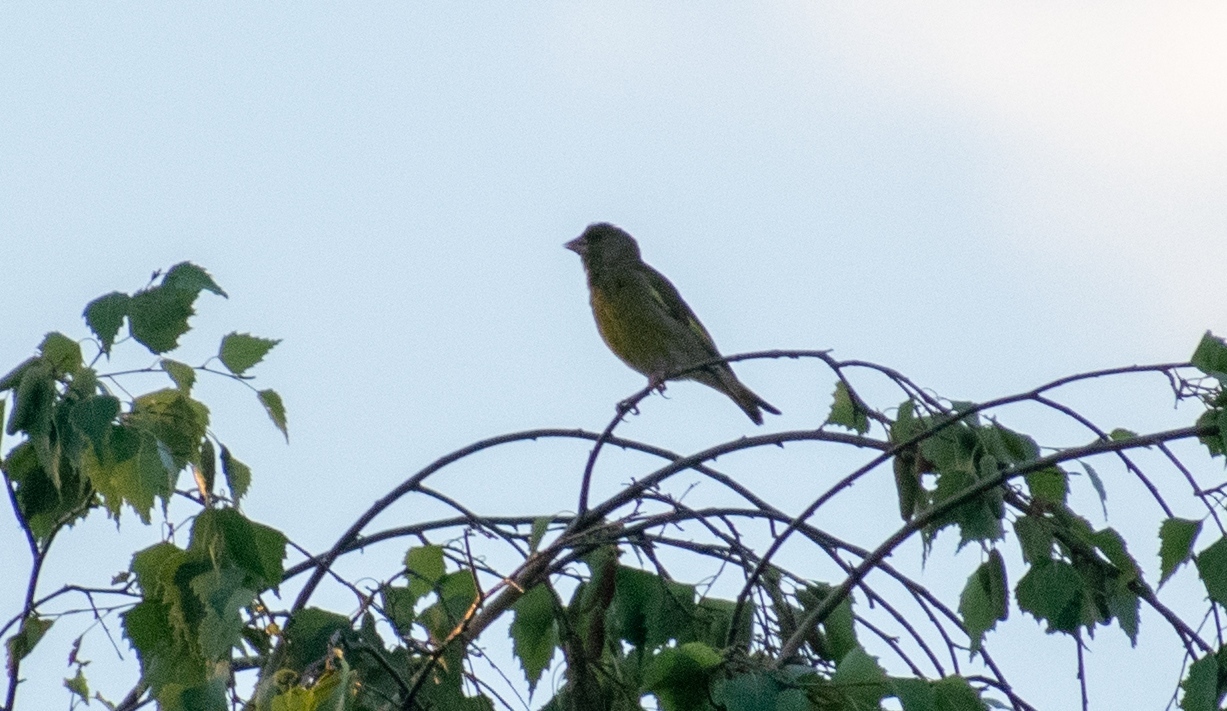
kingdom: Plantae
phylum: Tracheophyta
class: Liliopsida
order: Poales
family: Poaceae
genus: Chloris
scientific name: Chloris chloris
